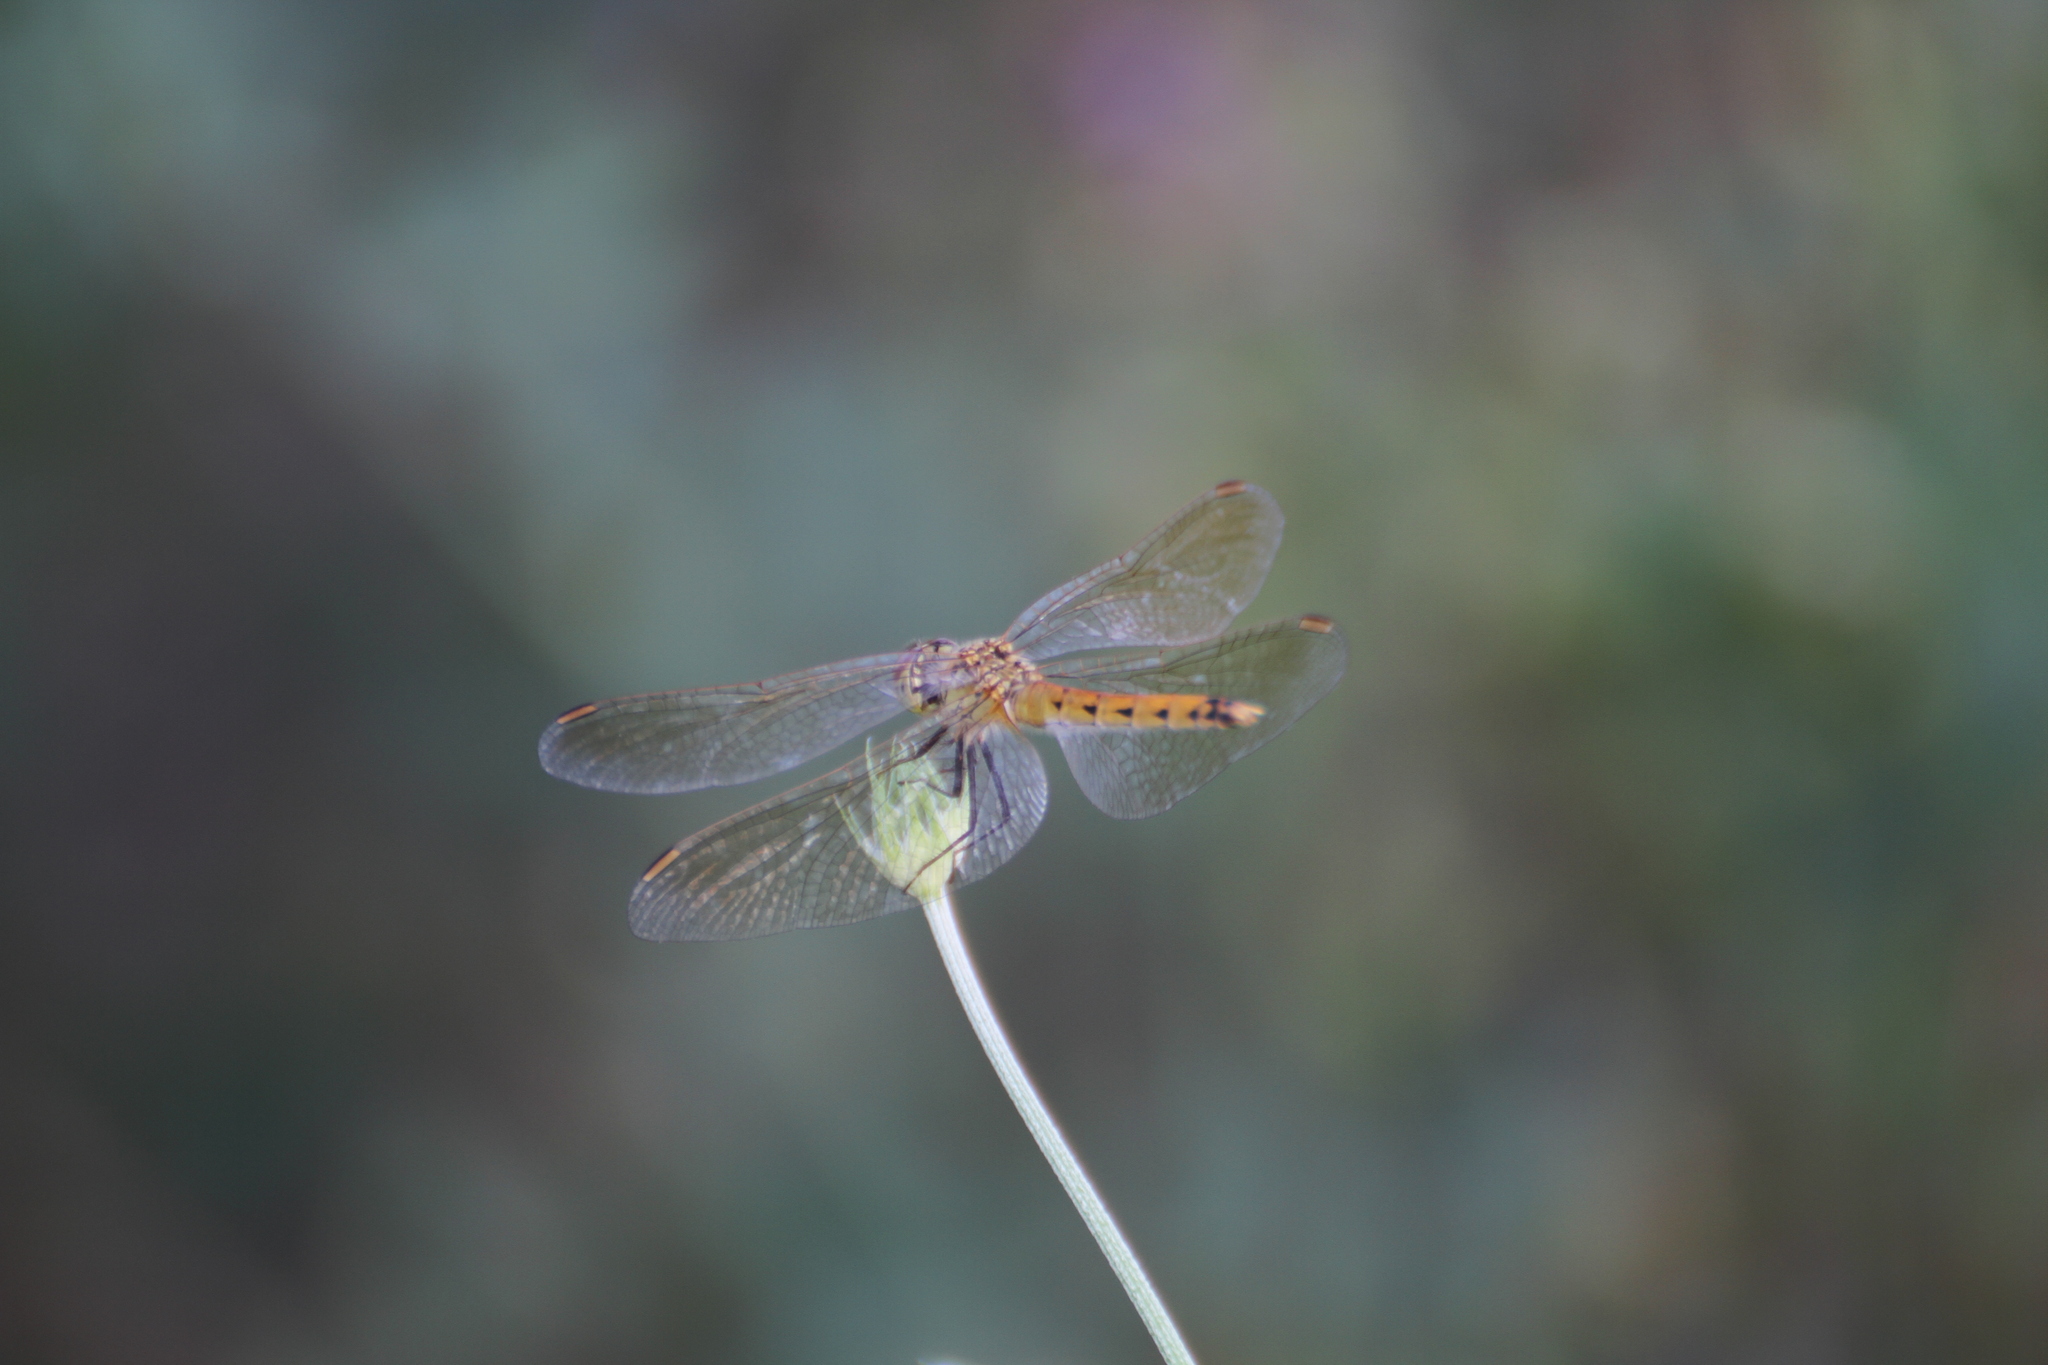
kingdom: Animalia
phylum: Arthropoda
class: Insecta
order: Odonata
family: Libellulidae
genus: Sympetrum
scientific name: Sympetrum depressiusculum
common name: Spotted darter
